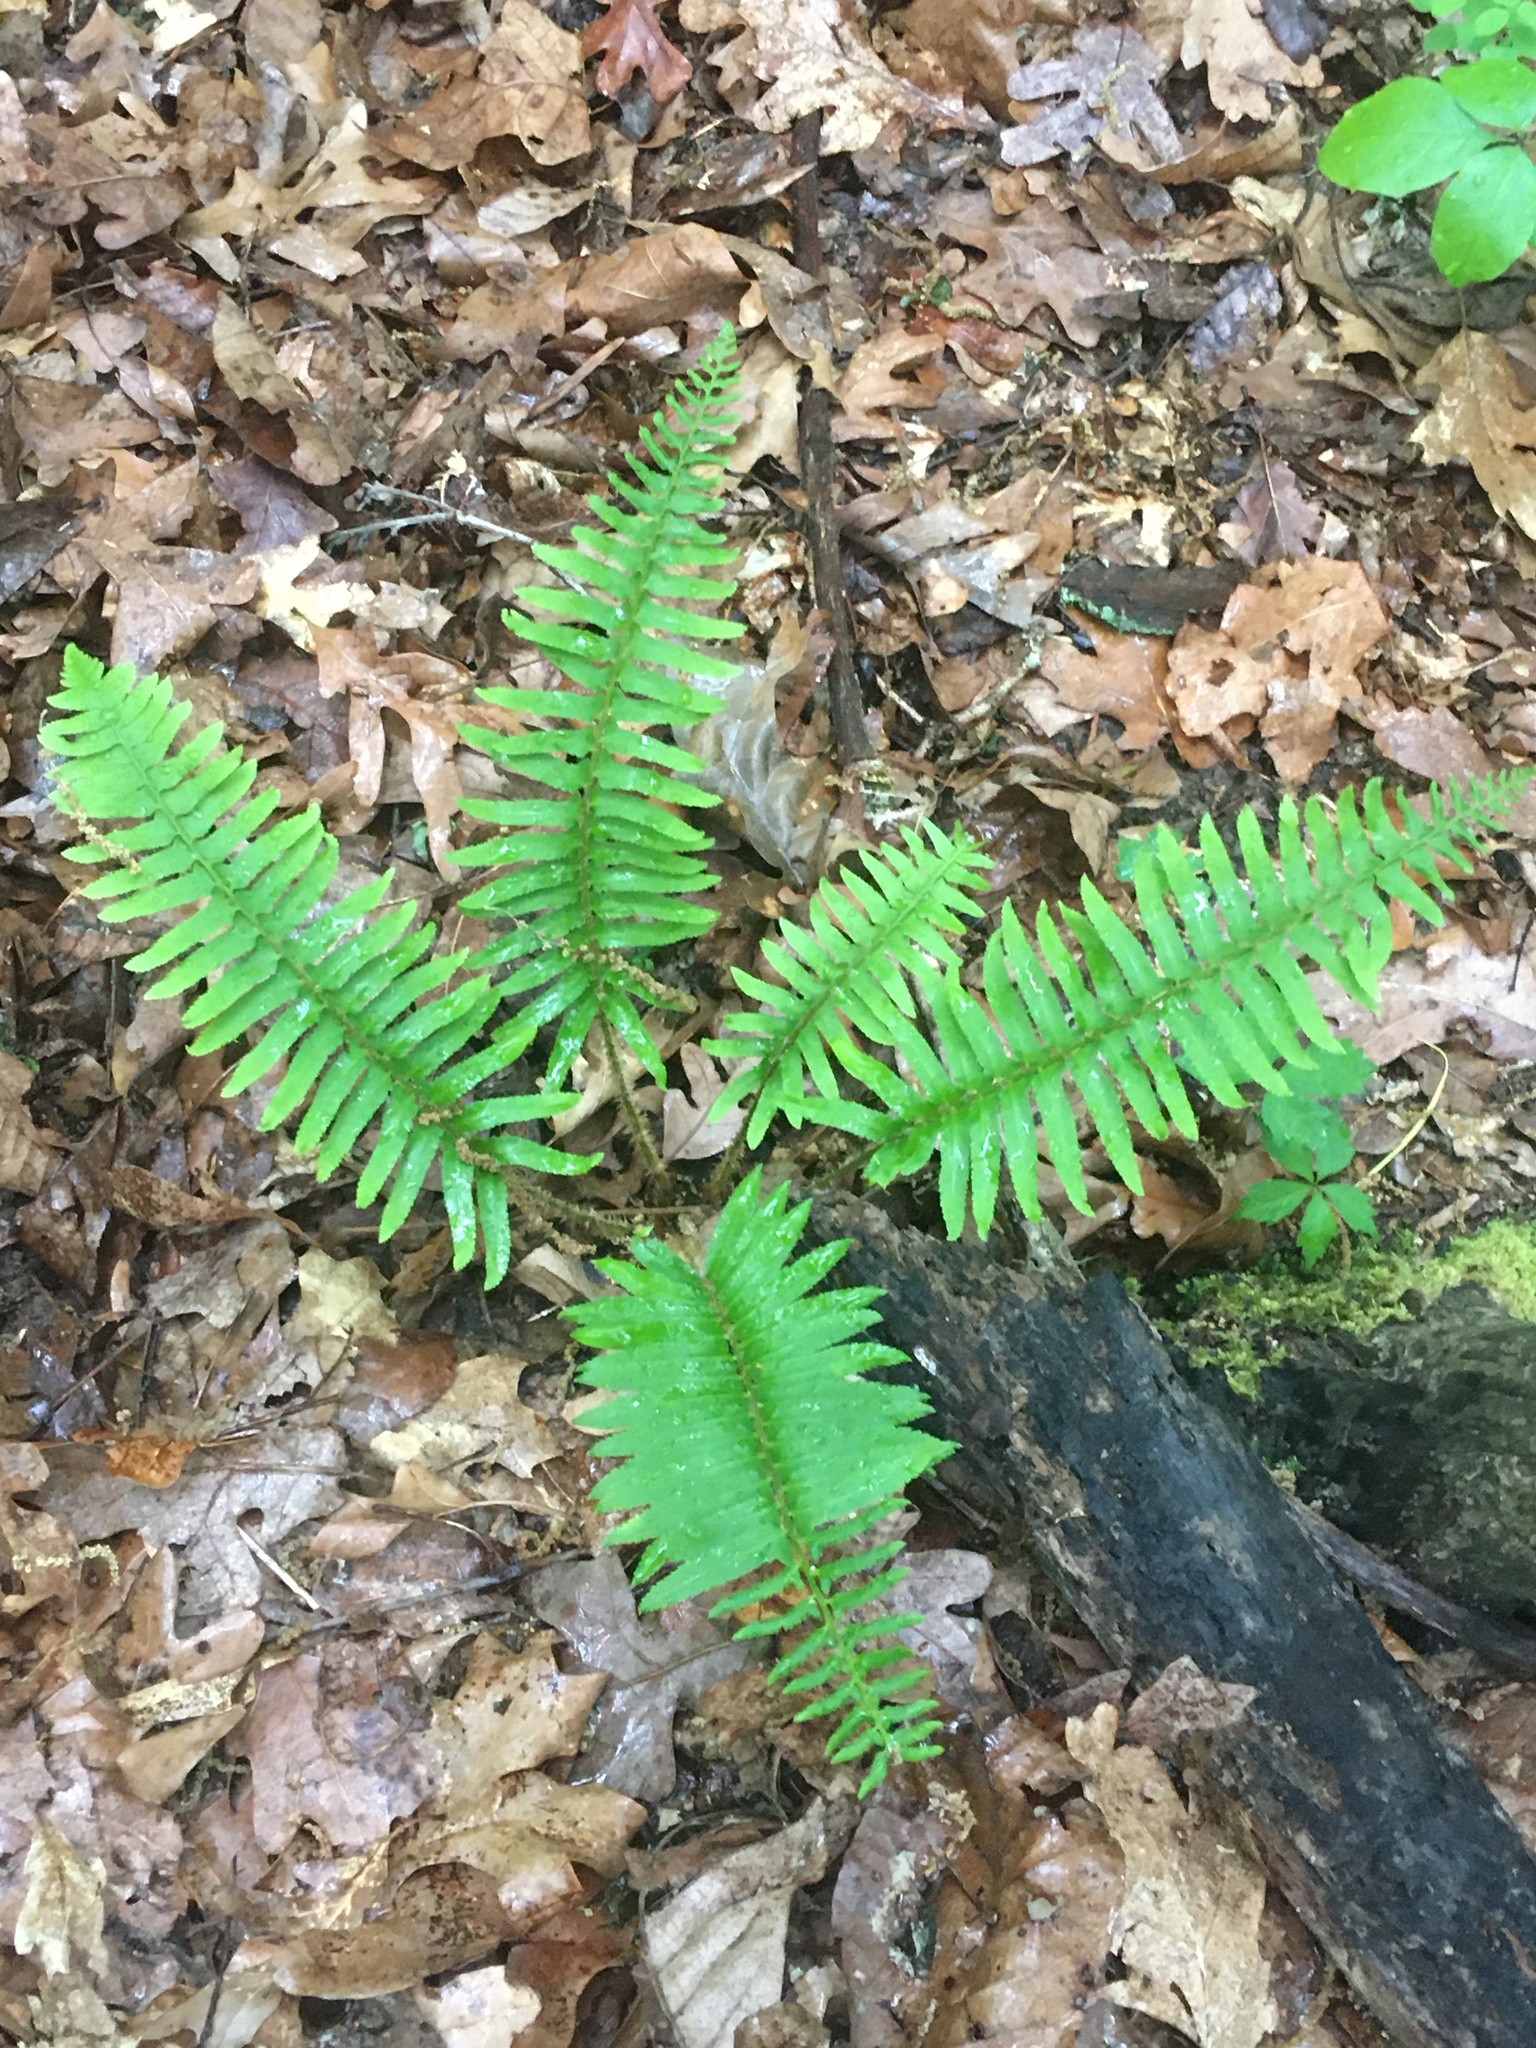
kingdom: Plantae
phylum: Tracheophyta
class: Polypodiopsida
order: Polypodiales
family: Dryopteridaceae
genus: Polystichum
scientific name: Polystichum acrostichoides
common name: Christmas fern
